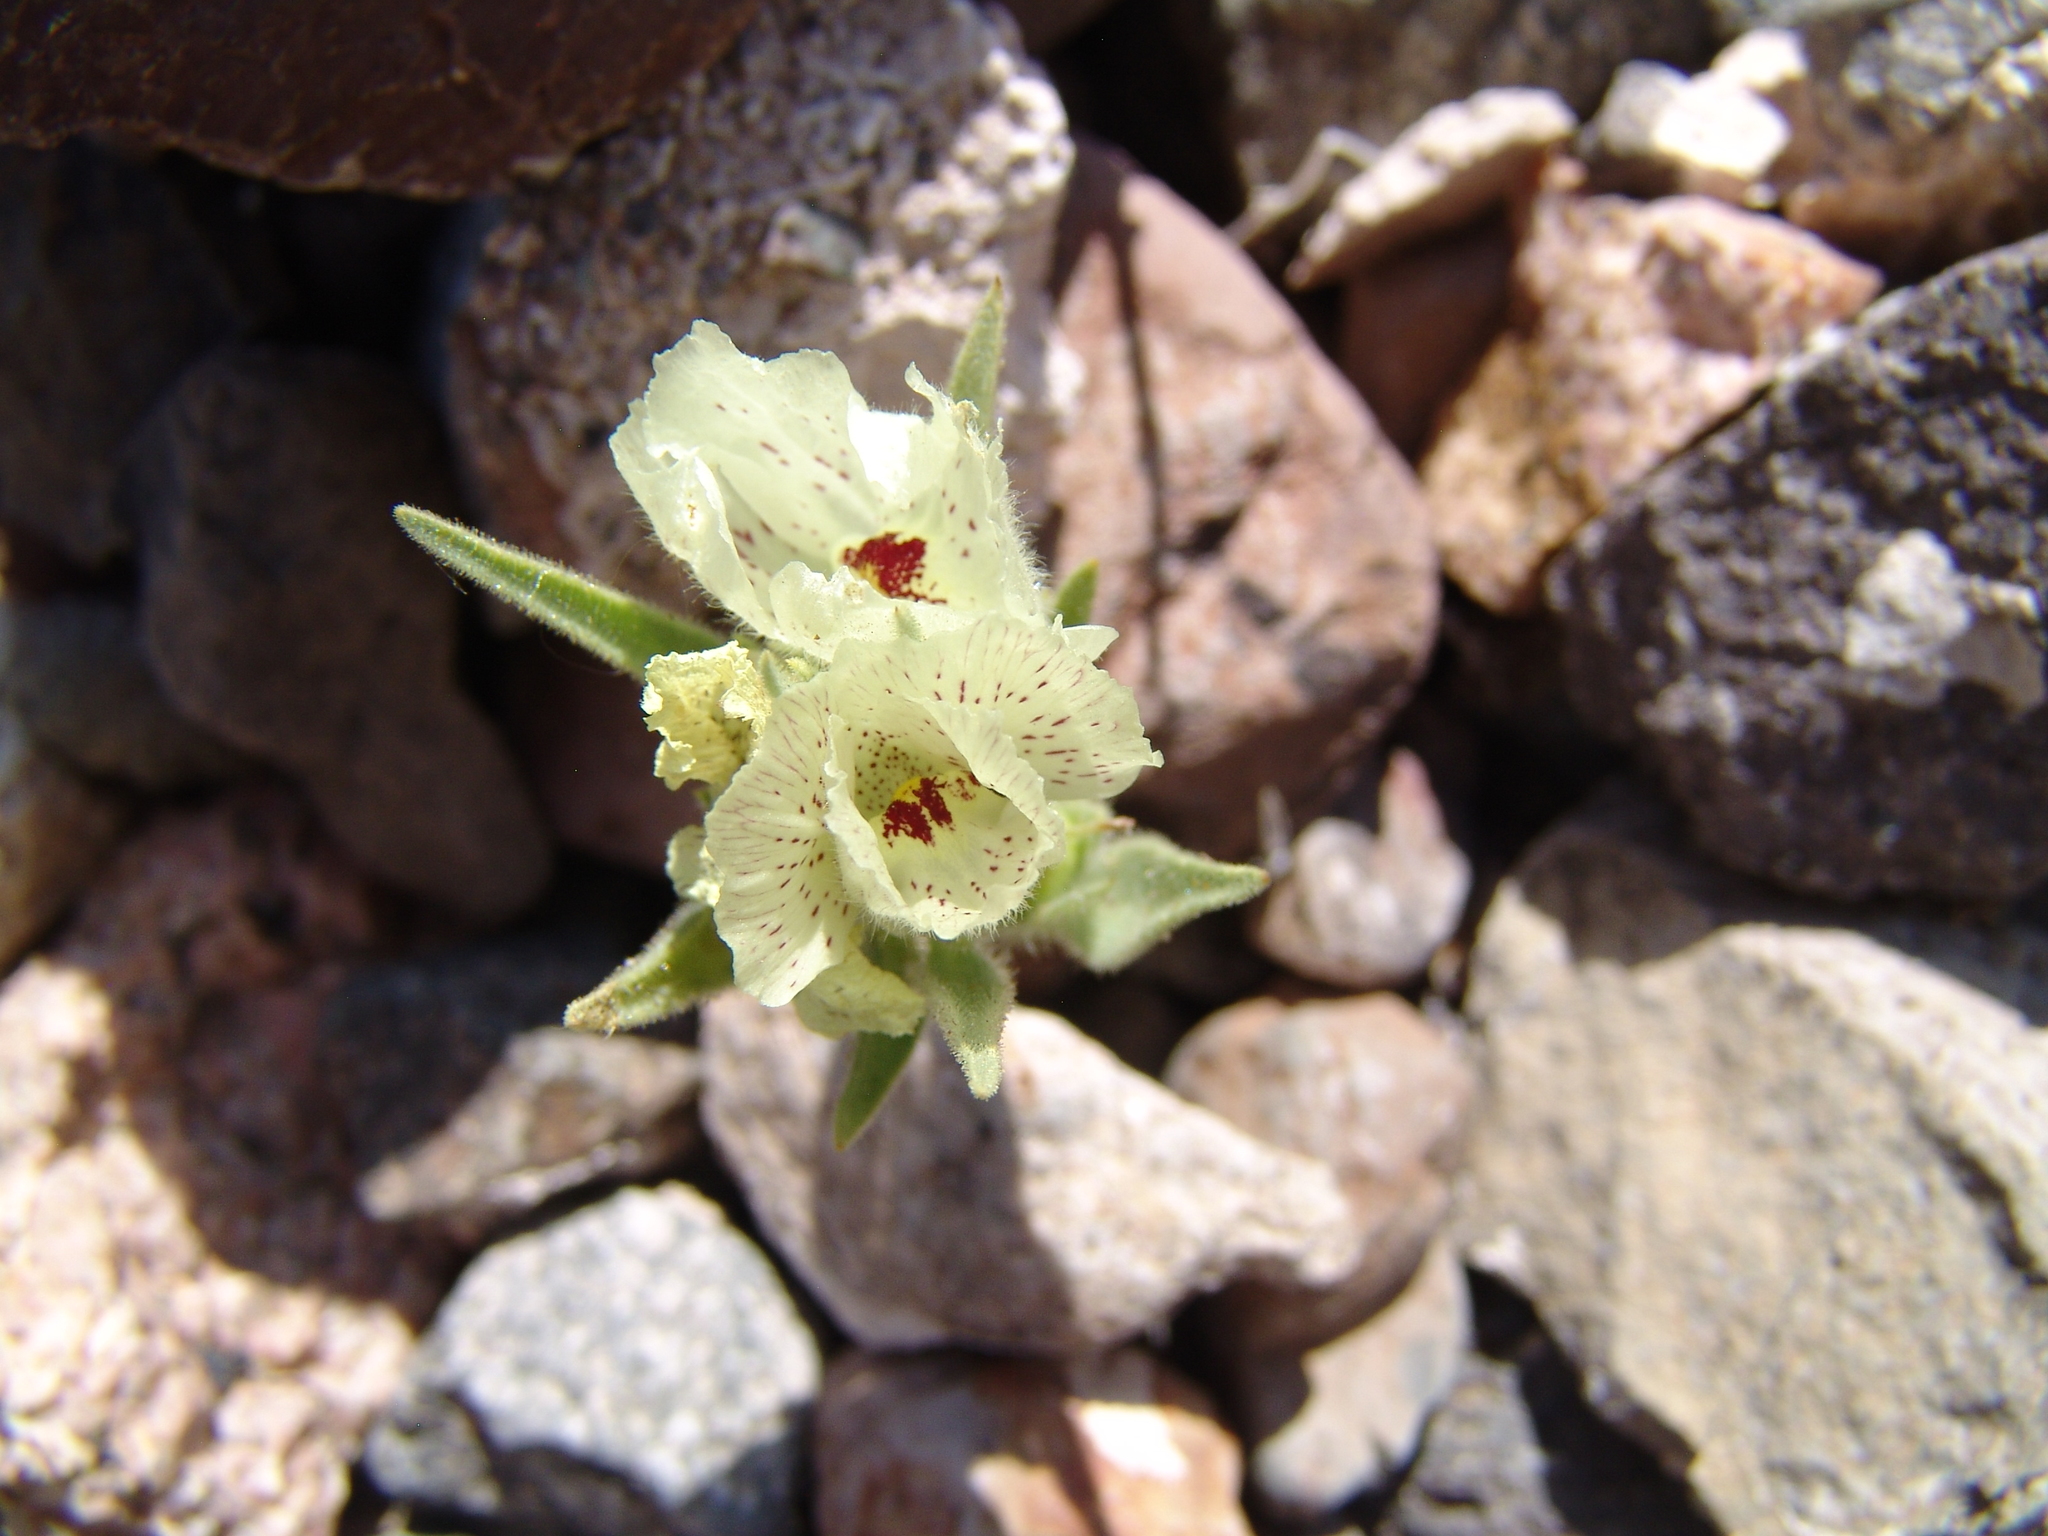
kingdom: Plantae
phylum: Tracheophyta
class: Magnoliopsida
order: Lamiales
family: Plantaginaceae
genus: Mohavea
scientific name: Mohavea confertiflora
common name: Ghost flower
